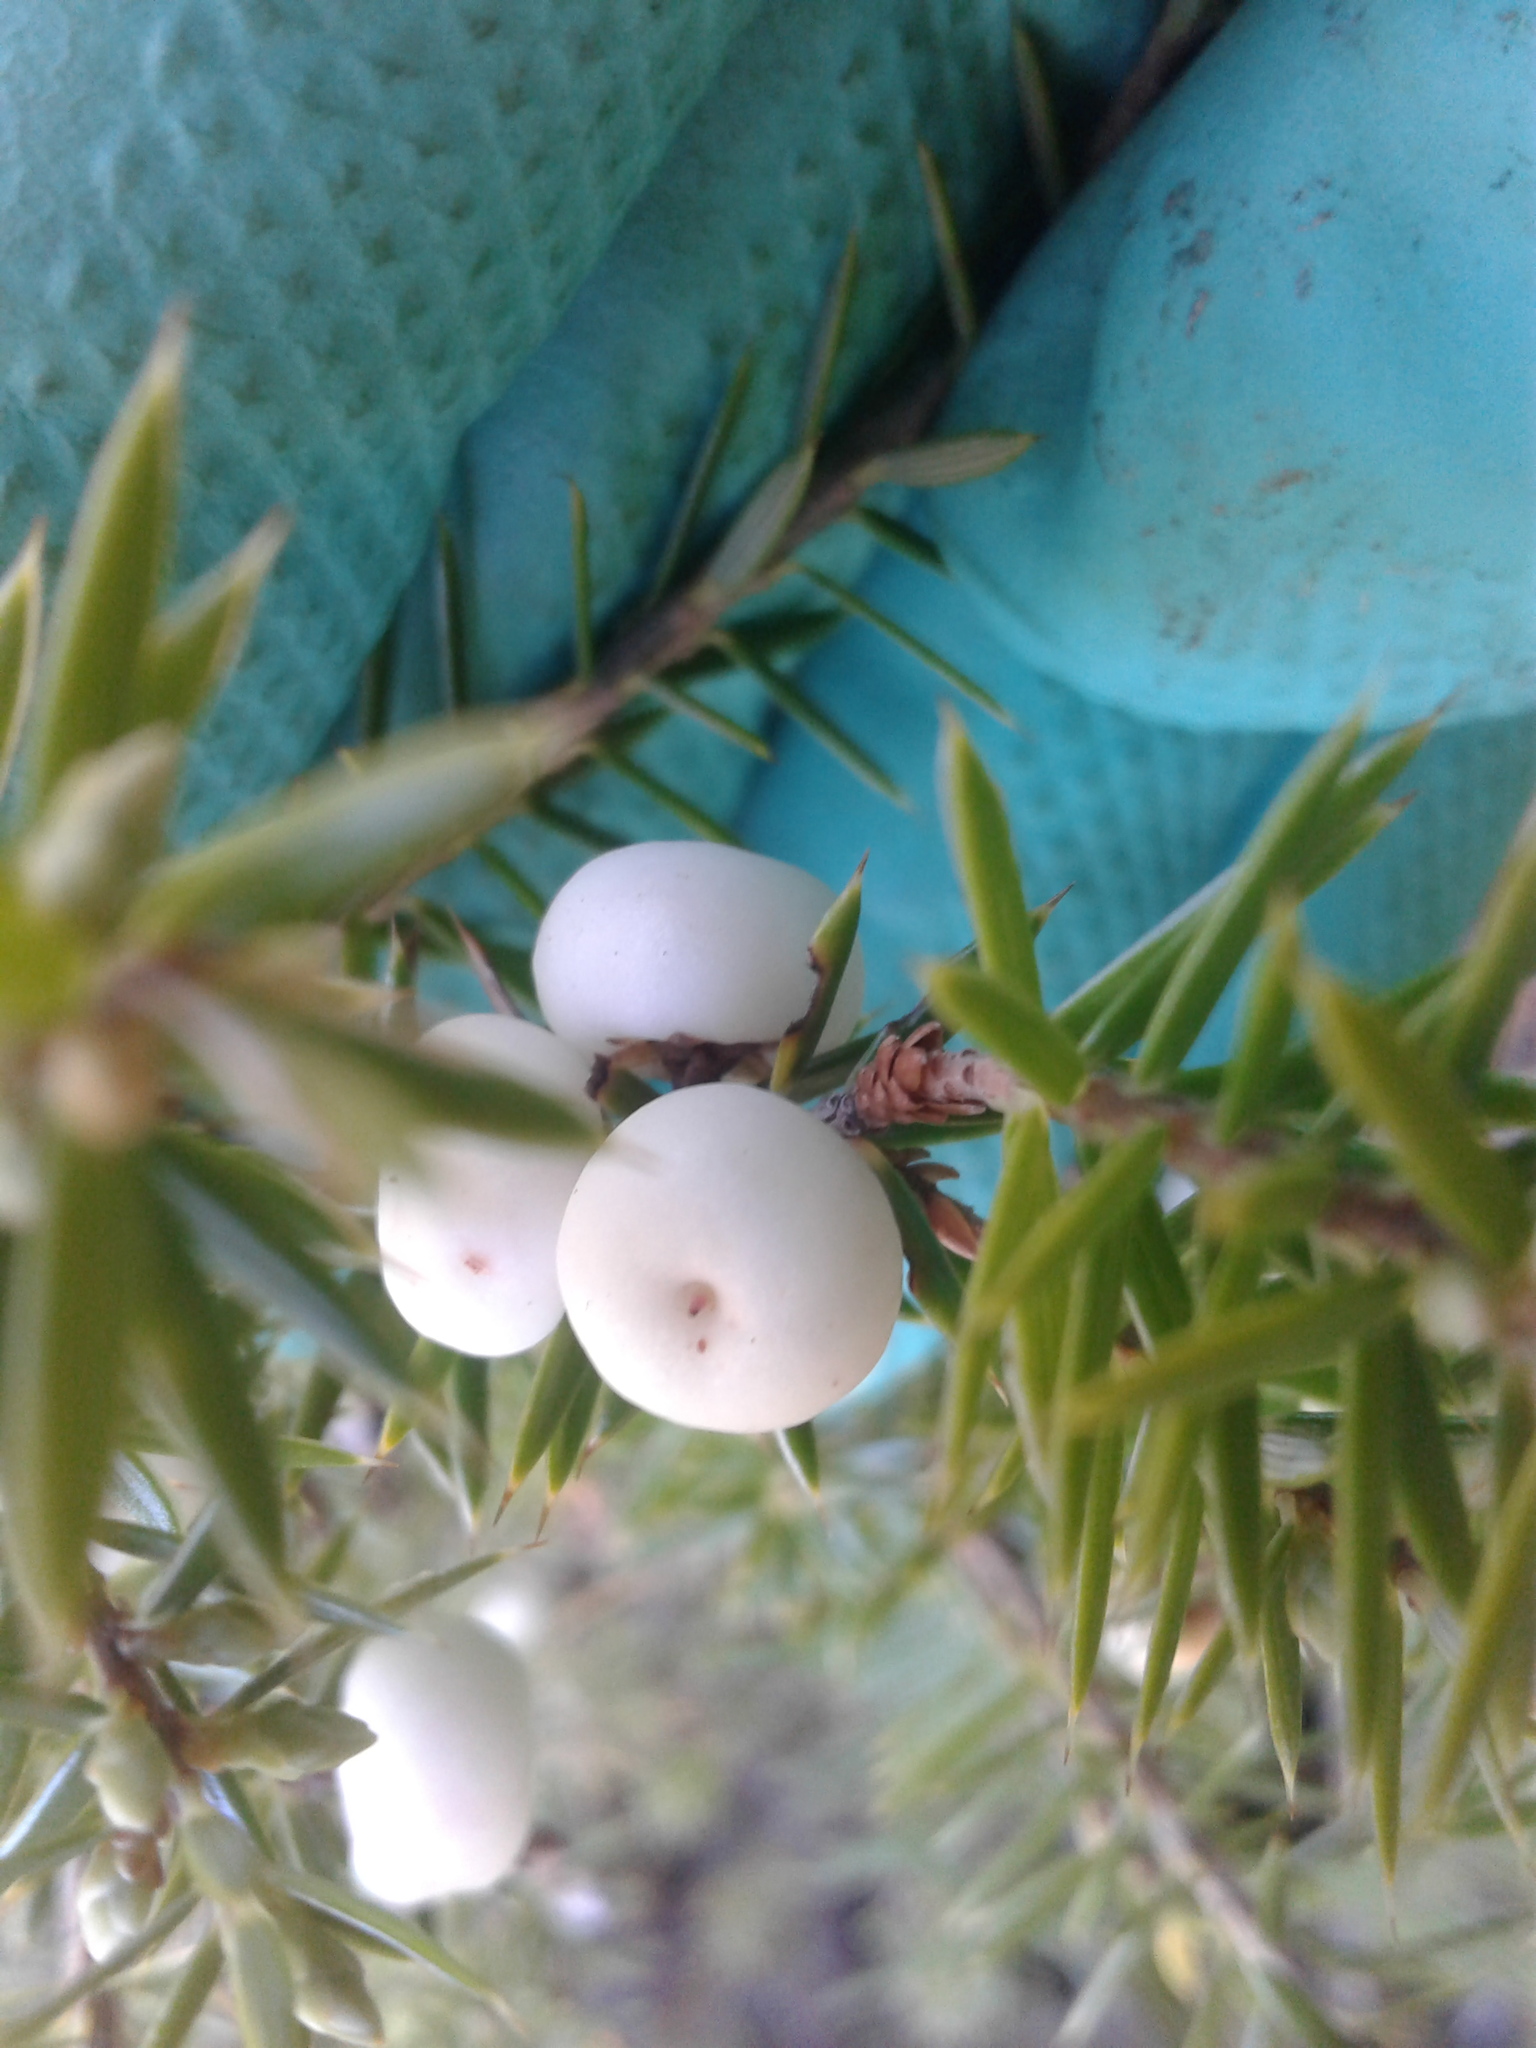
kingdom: Plantae
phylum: Tracheophyta
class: Magnoliopsida
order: Ericales
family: Ericaceae
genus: Leptecophylla
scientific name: Leptecophylla juniperina
